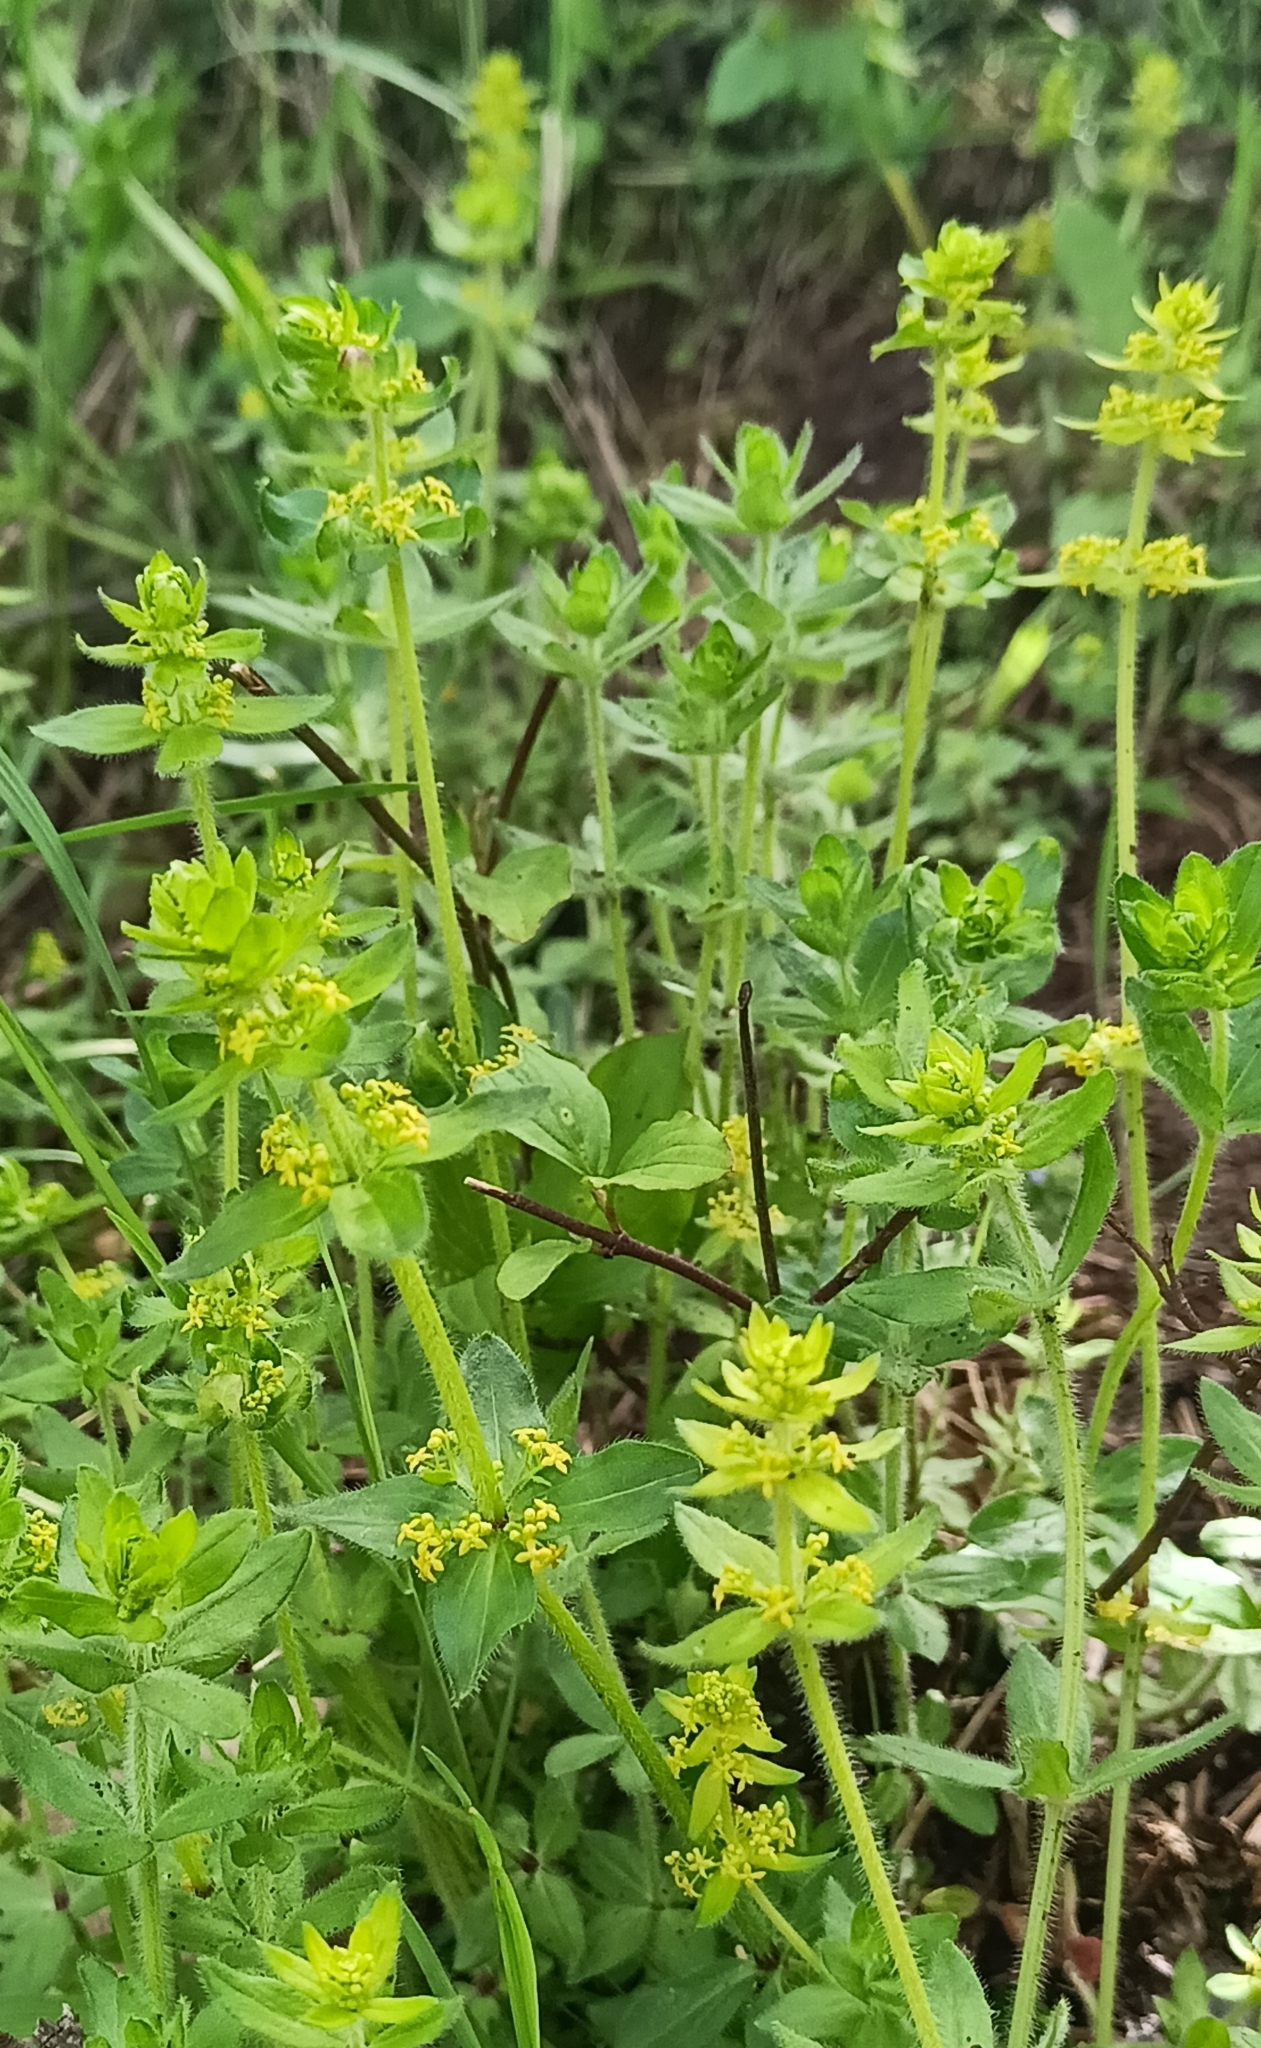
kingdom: Plantae
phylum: Tracheophyta
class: Magnoliopsida
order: Gentianales
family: Rubiaceae
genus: Cruciata
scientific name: Cruciata laevipes
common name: Crosswort
